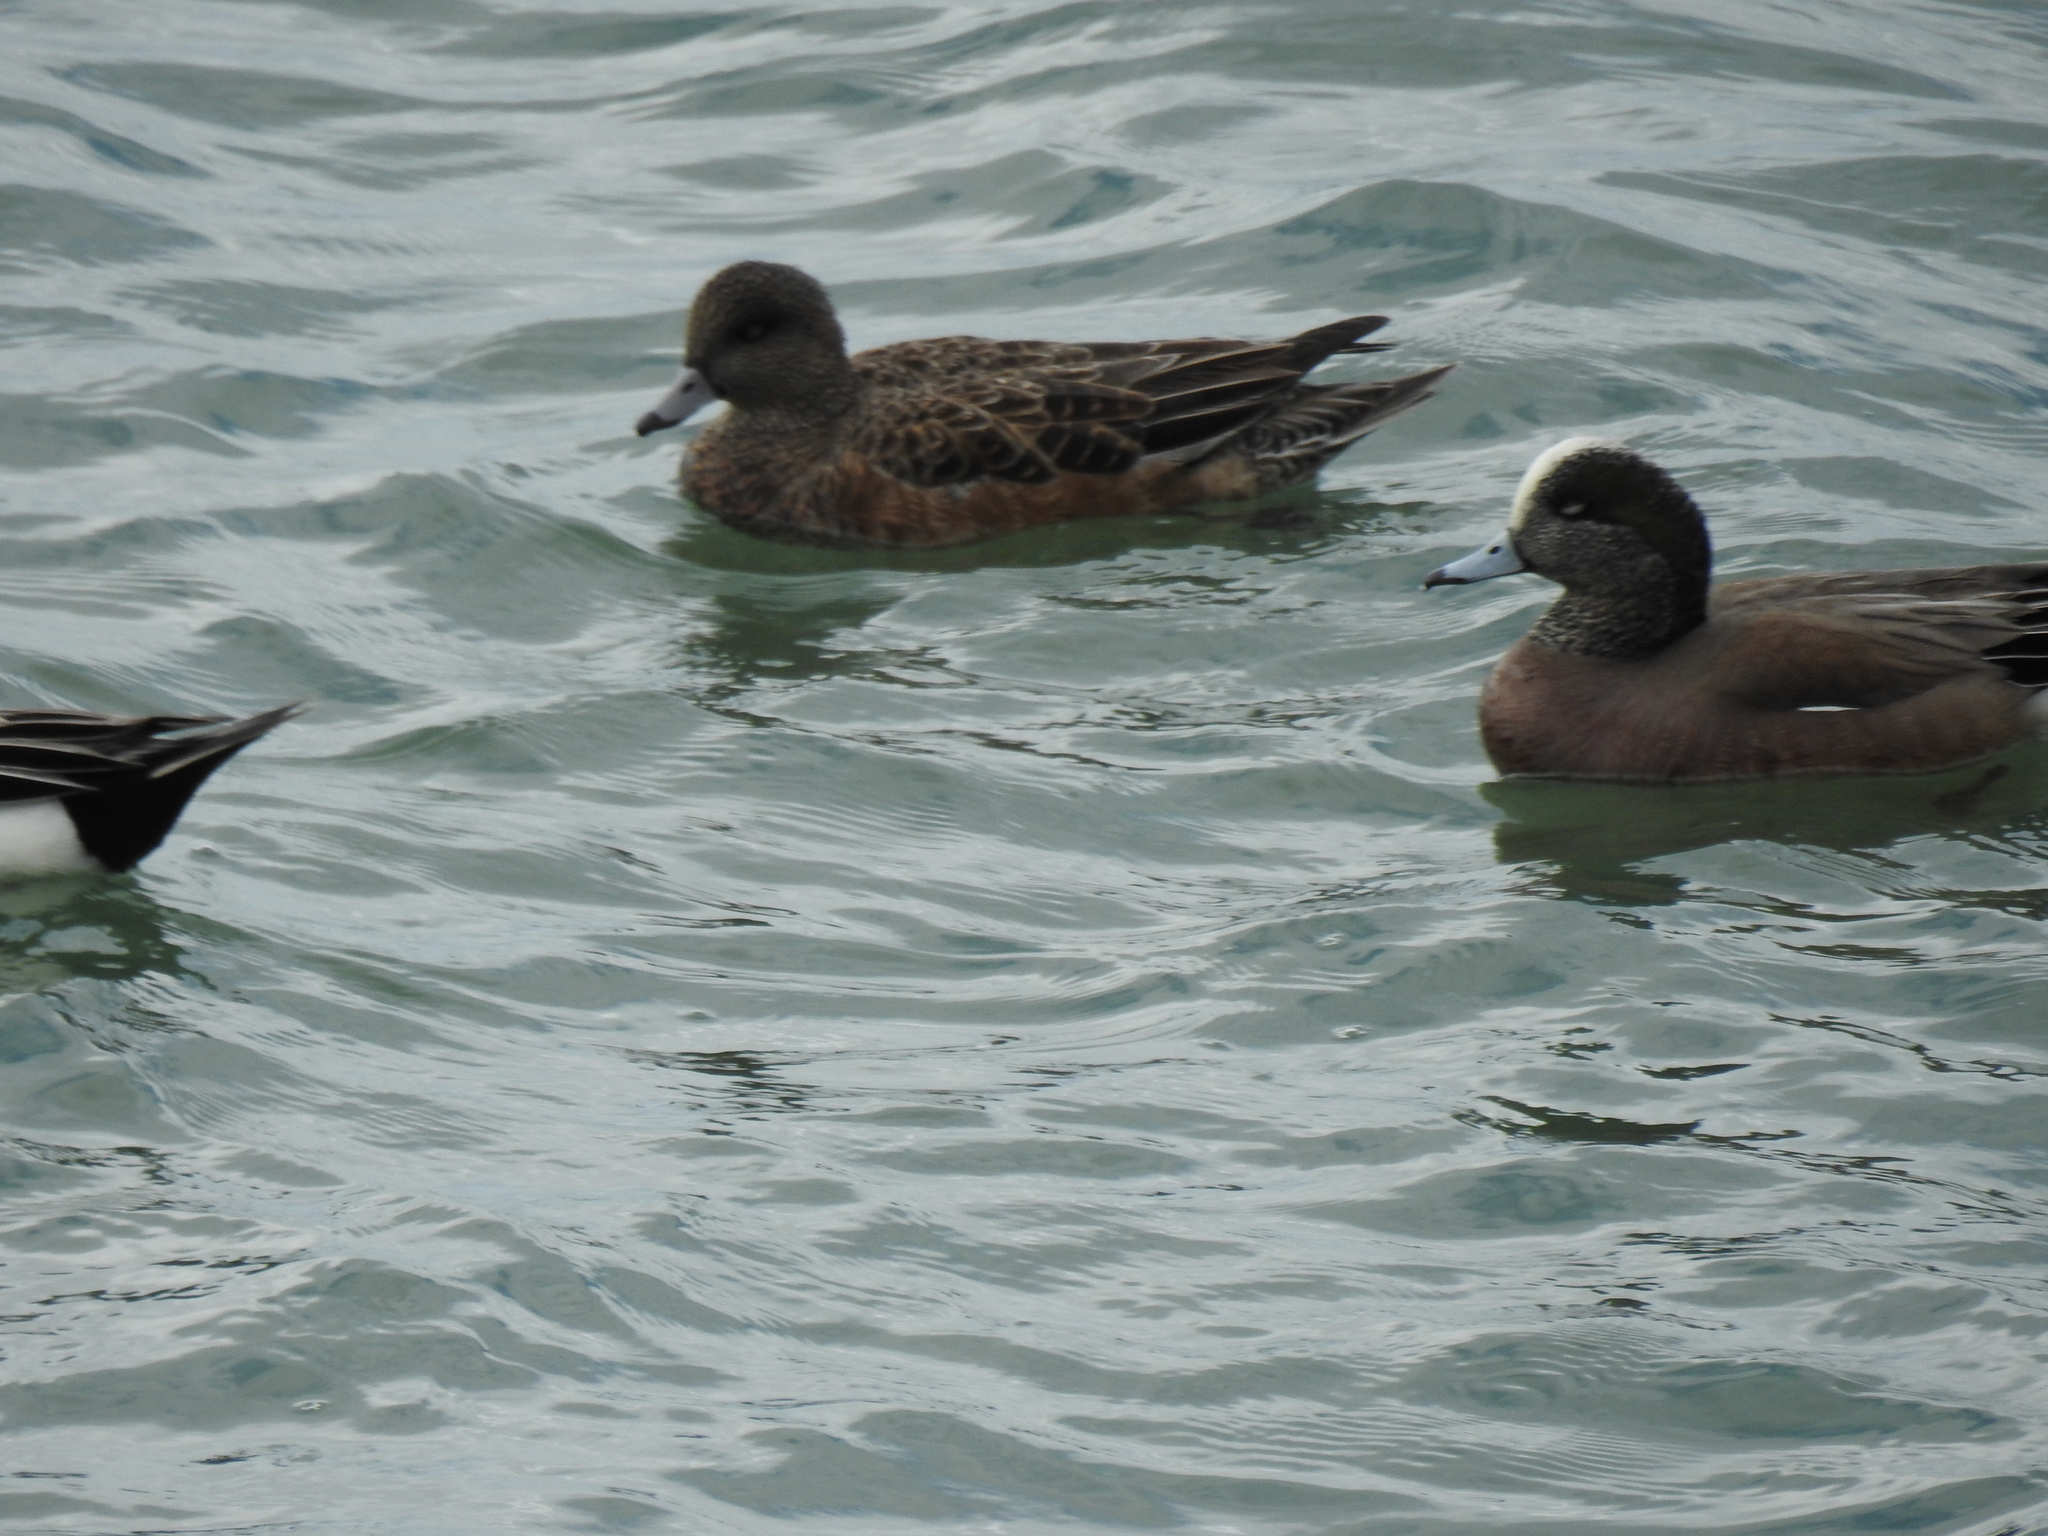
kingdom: Animalia
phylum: Chordata
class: Aves
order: Anseriformes
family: Anatidae
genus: Mareca
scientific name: Mareca americana
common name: American wigeon
